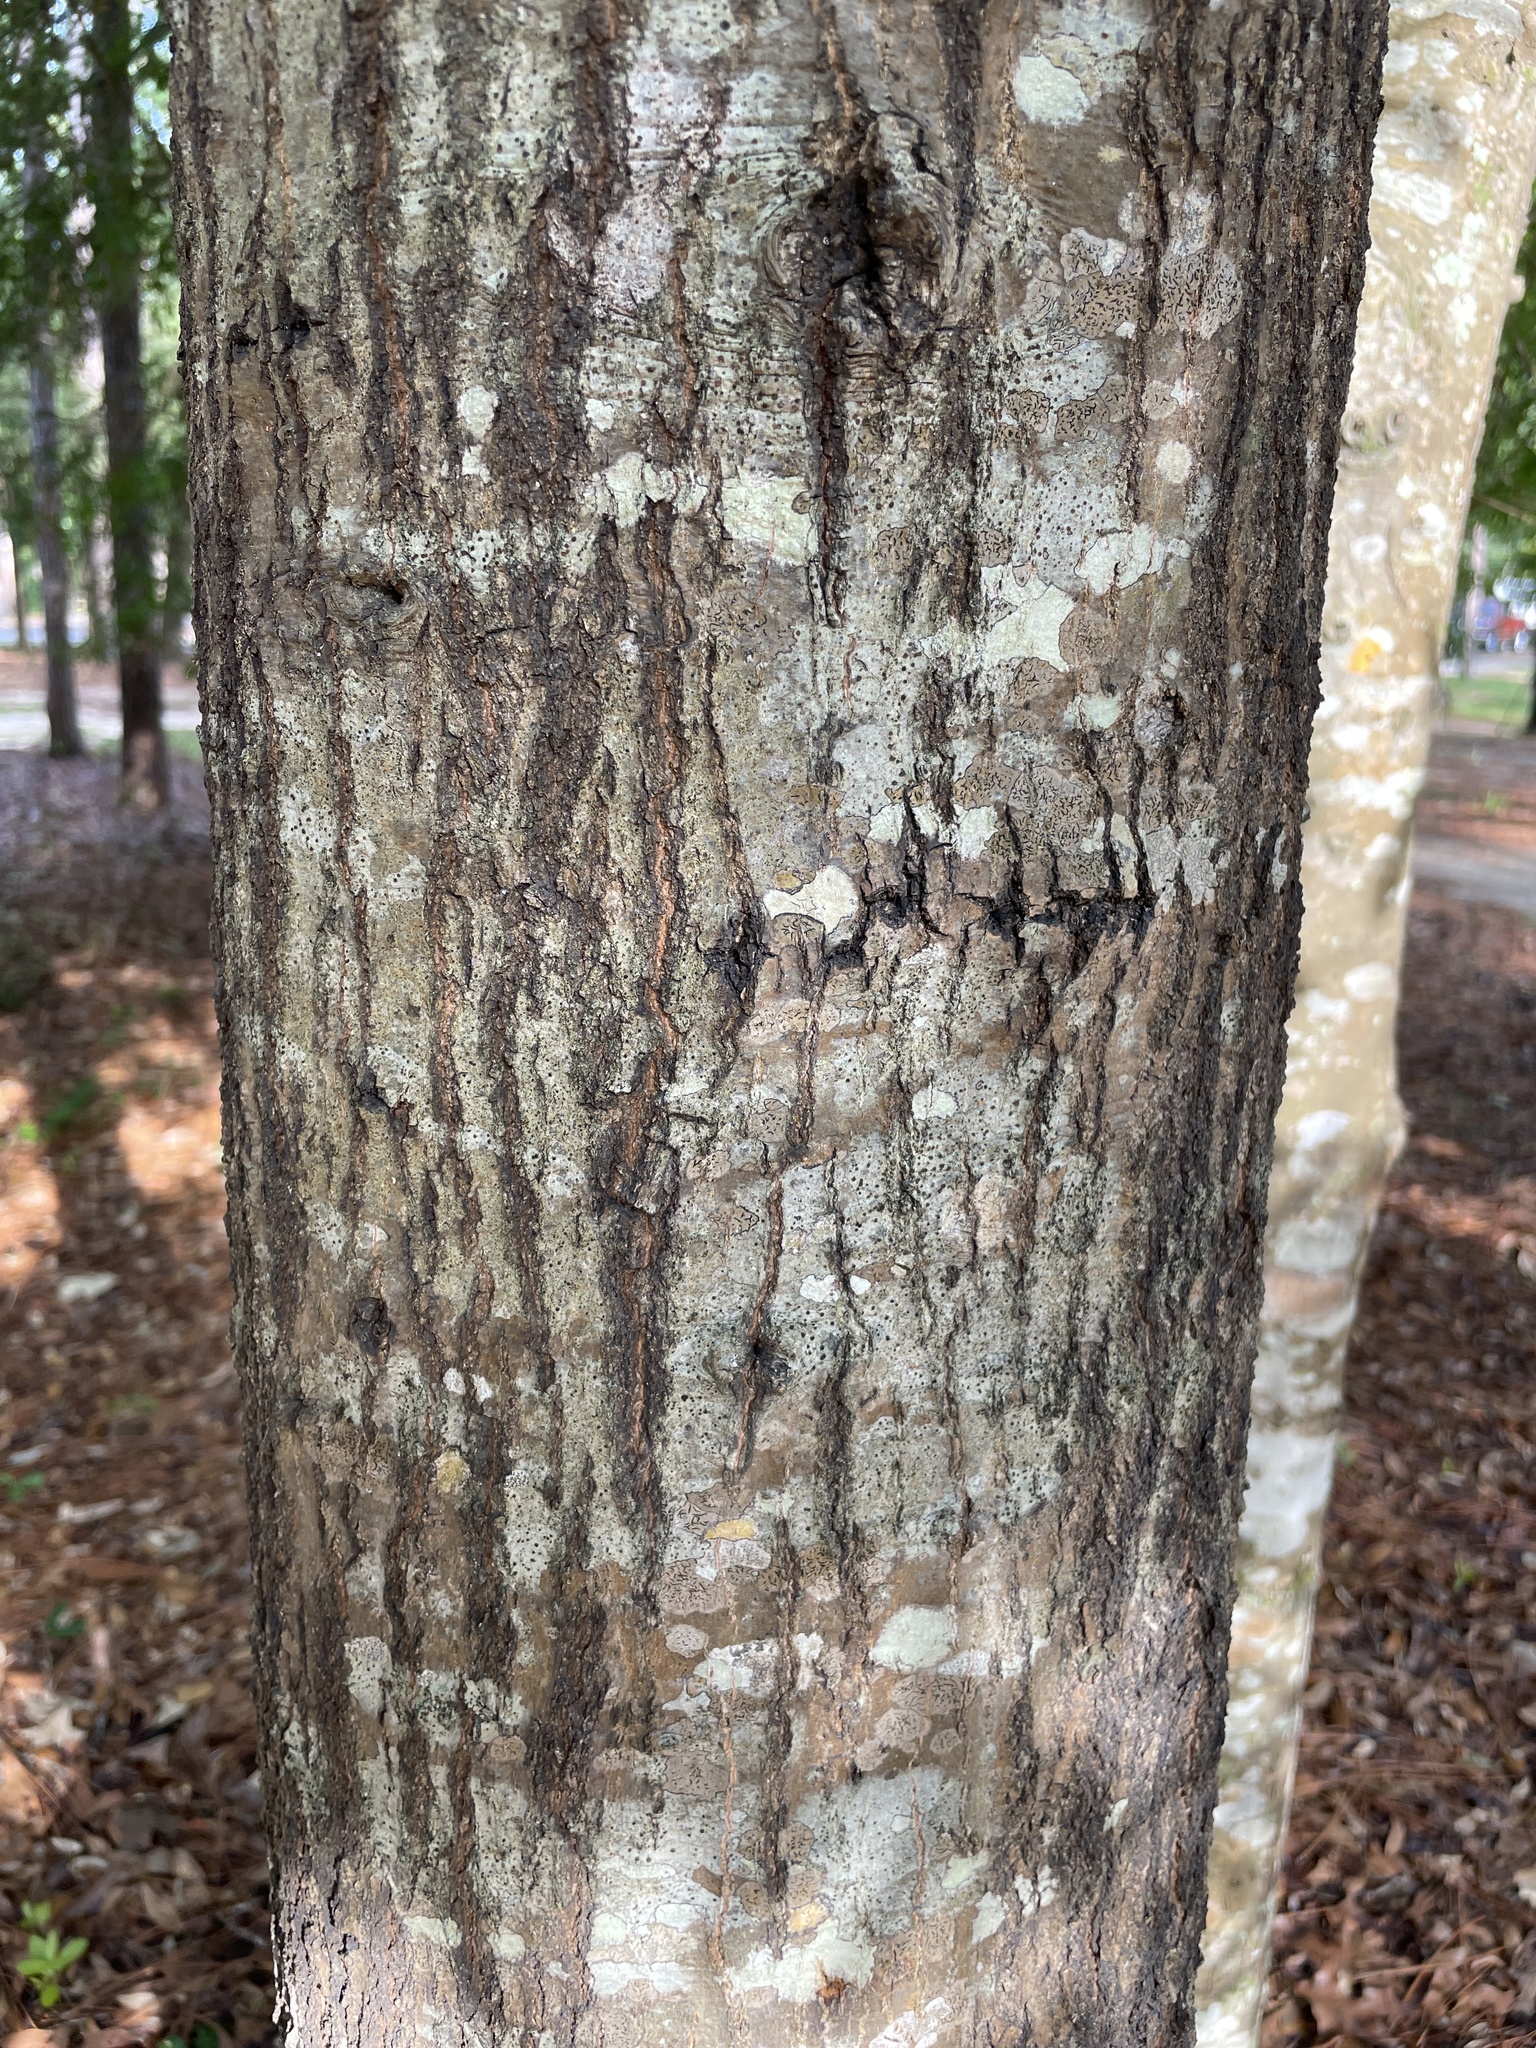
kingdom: Plantae
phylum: Tracheophyta
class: Magnoliopsida
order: Fagales
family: Fagaceae
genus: Quercus
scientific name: Quercus hemisphaerica
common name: Darlington oak
